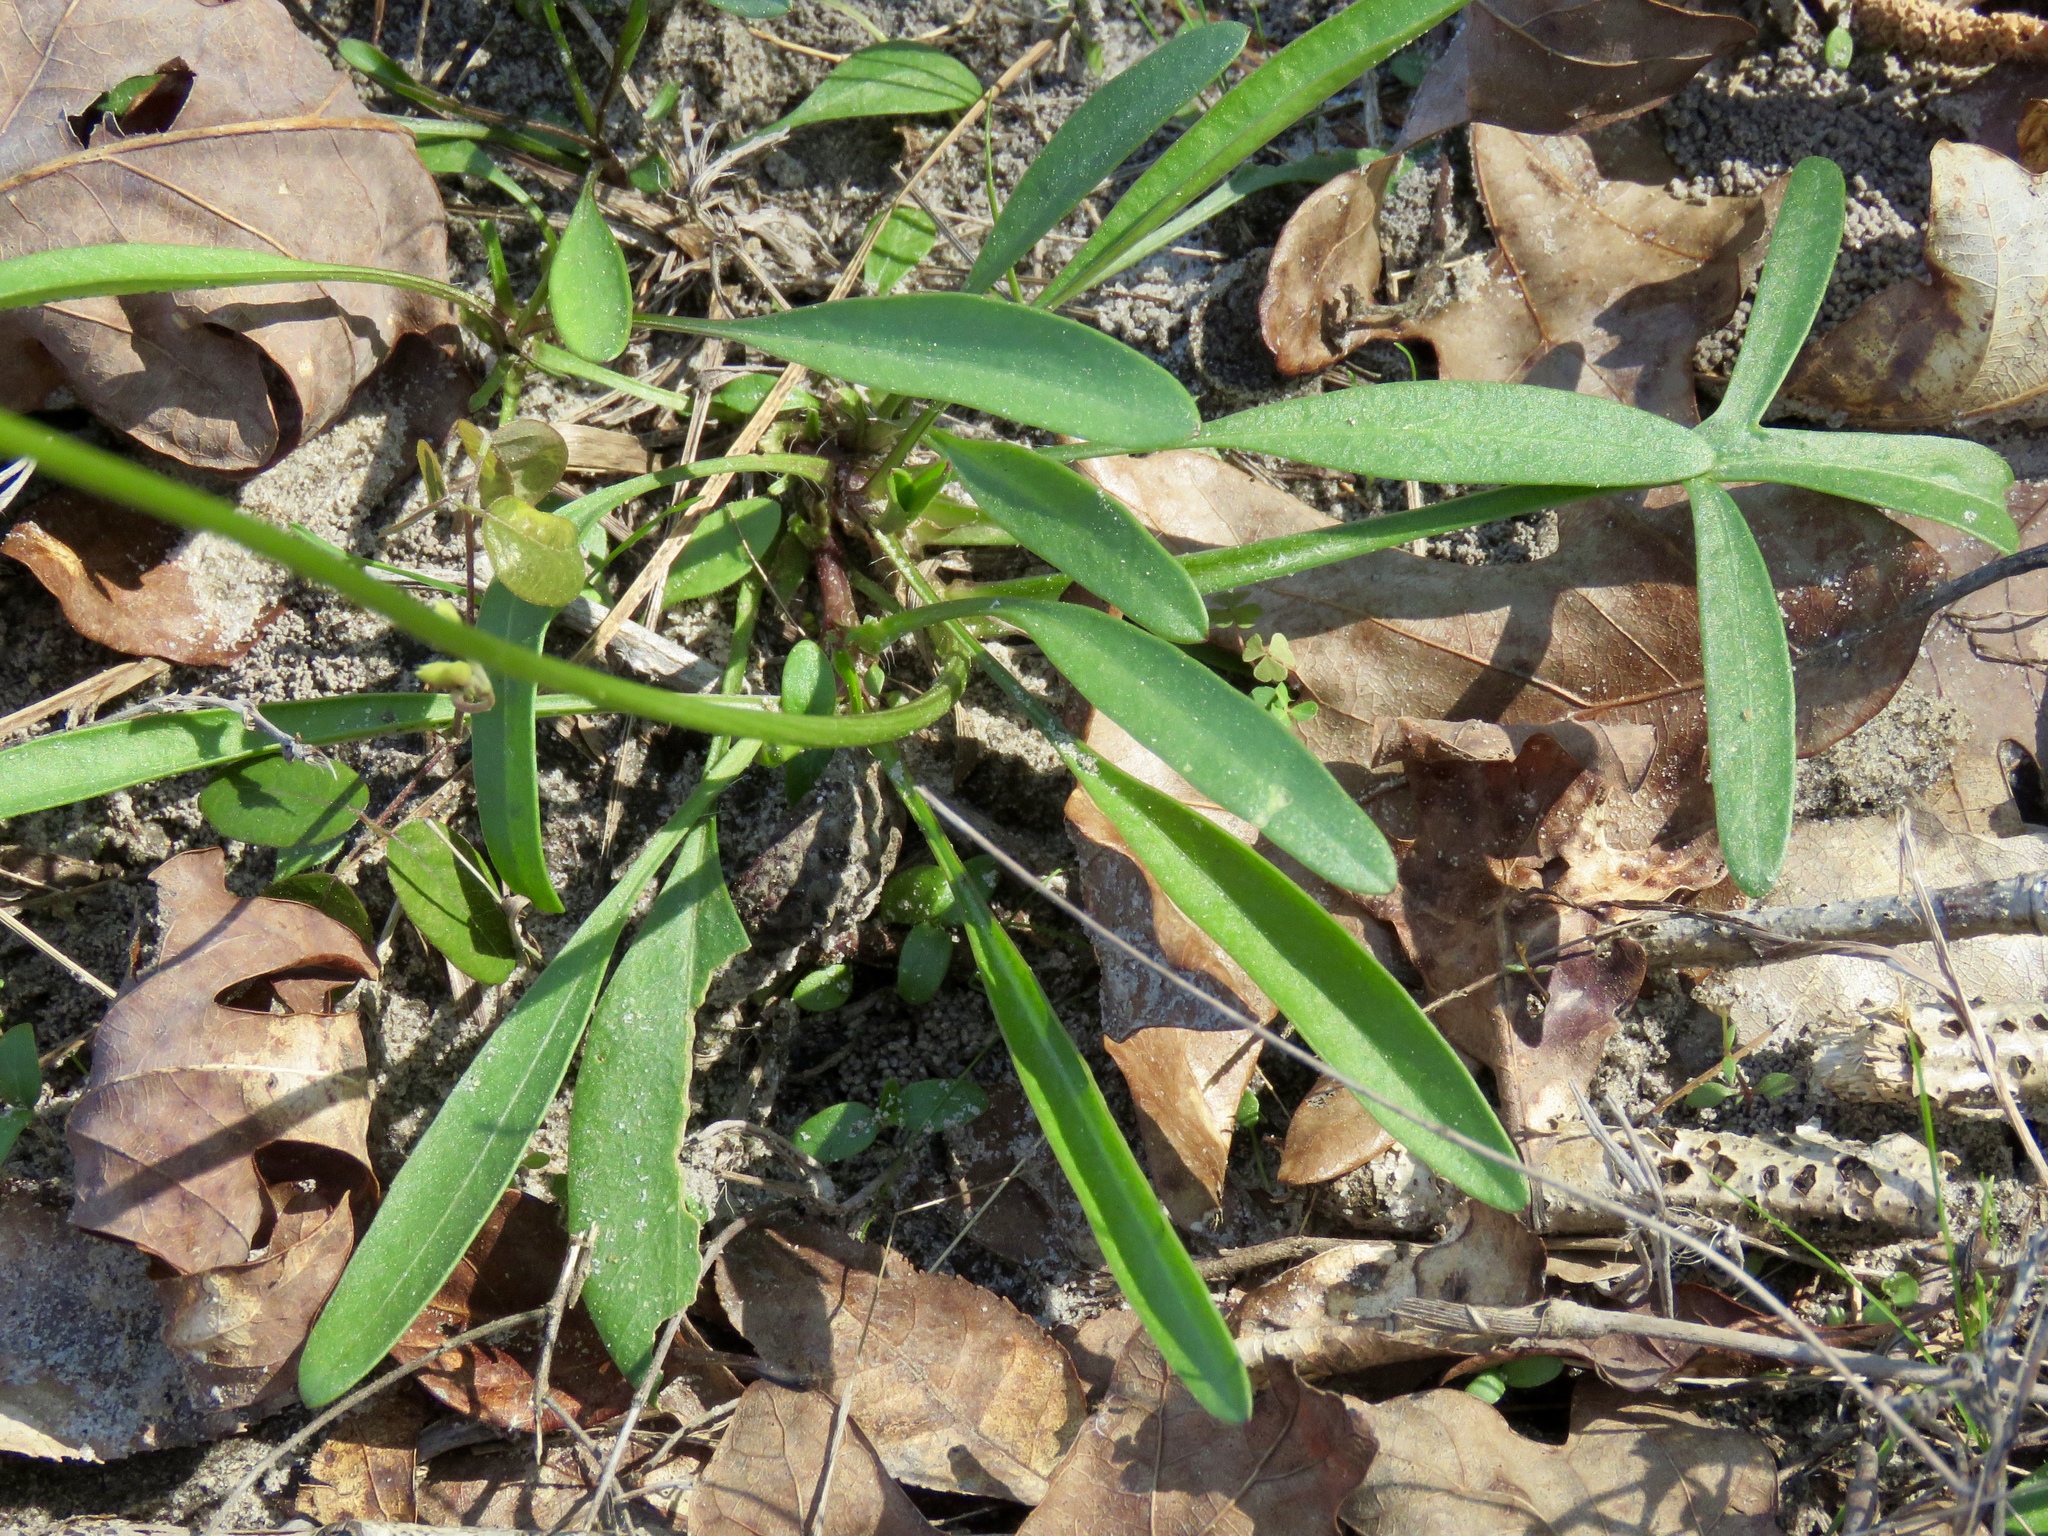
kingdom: Plantae
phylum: Tracheophyta
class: Magnoliopsida
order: Asterales
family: Asteraceae
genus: Coreopsis
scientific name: Coreopsis lanceolata
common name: Garden coreopsis
